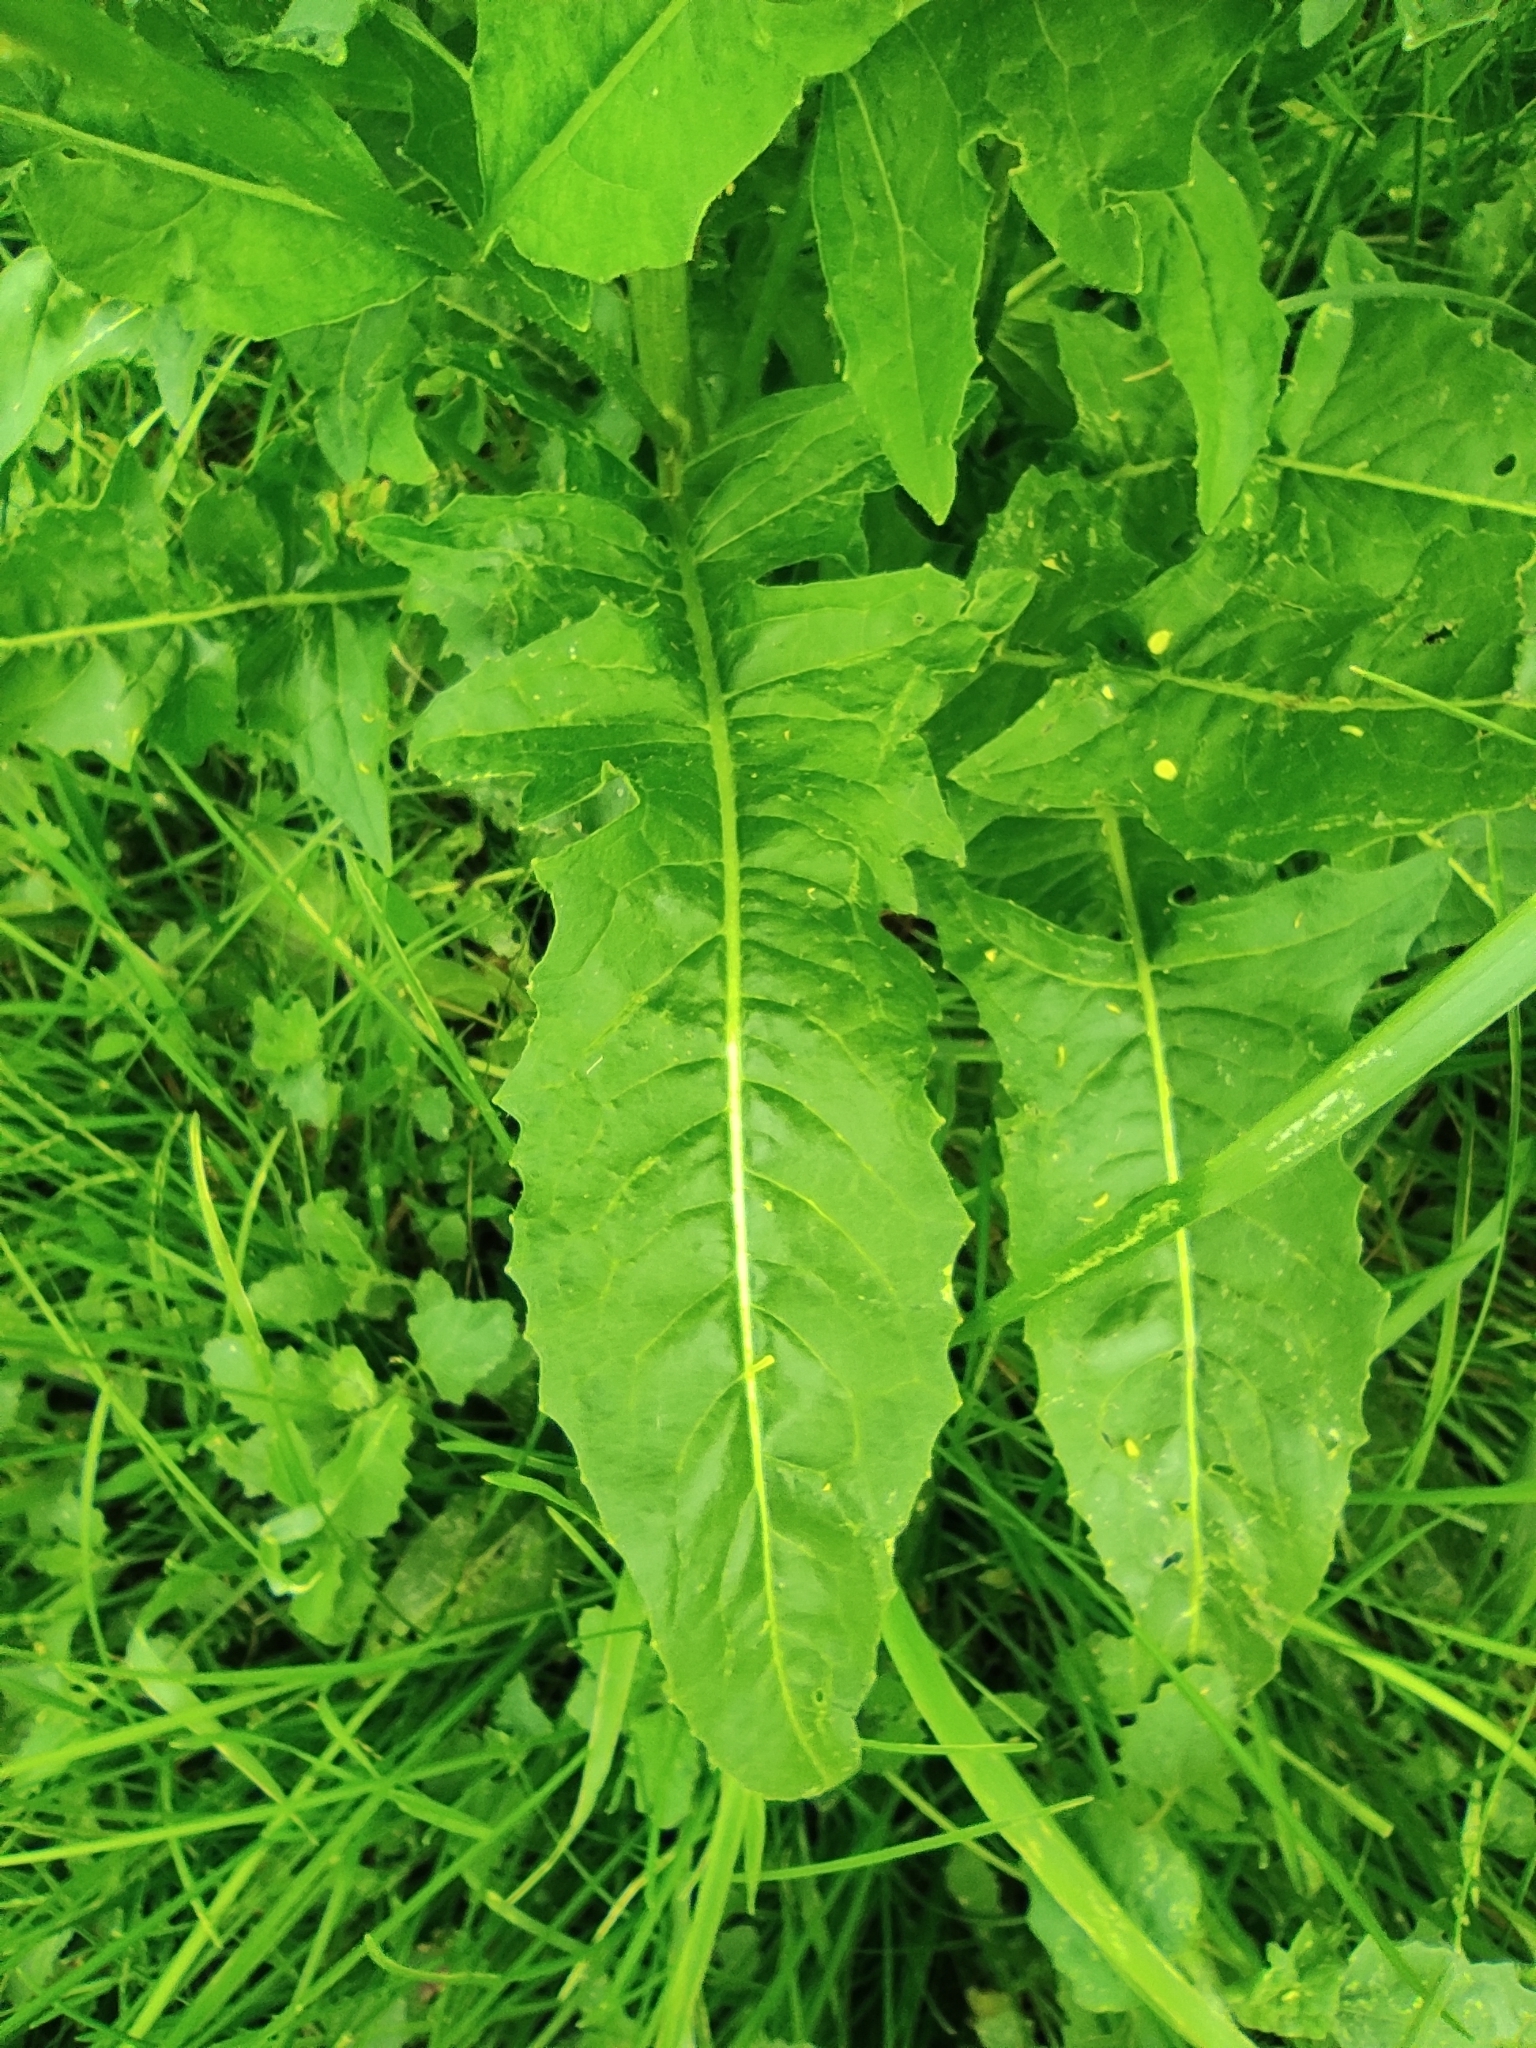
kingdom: Plantae
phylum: Tracheophyta
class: Magnoliopsida
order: Brassicales
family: Brassicaceae
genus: Bunias
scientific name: Bunias orientalis
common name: Warty-cabbage
